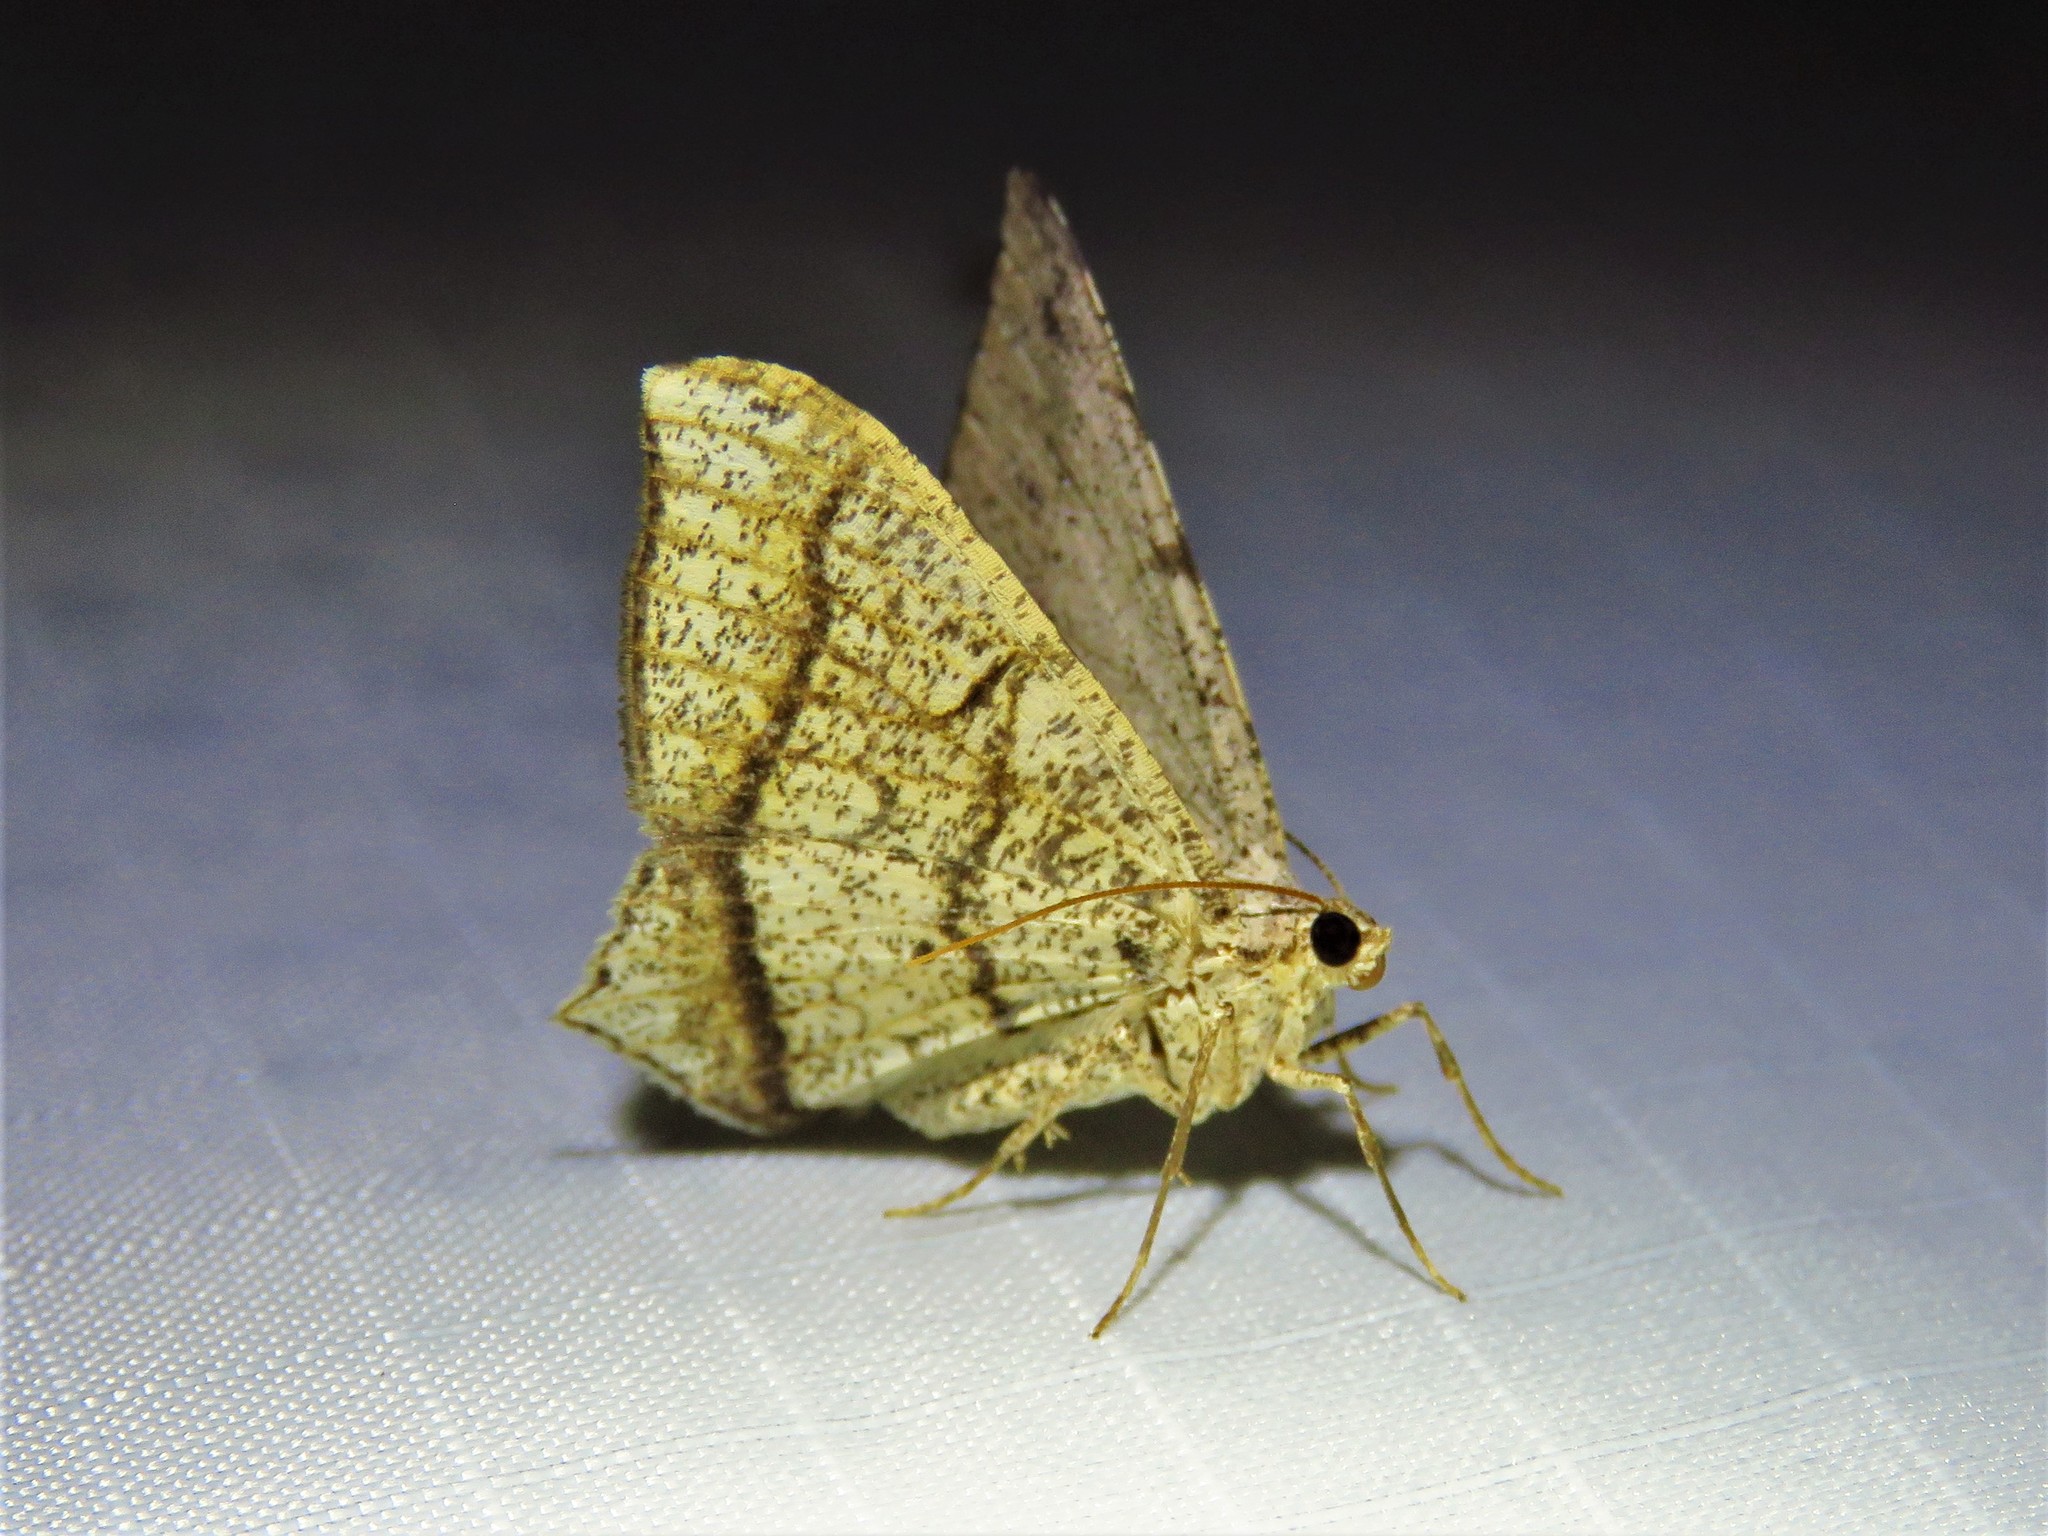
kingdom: Animalia
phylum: Arthropoda
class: Insecta
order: Lepidoptera
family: Geometridae
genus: Semiothisa
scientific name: Semiothisa arenisca
